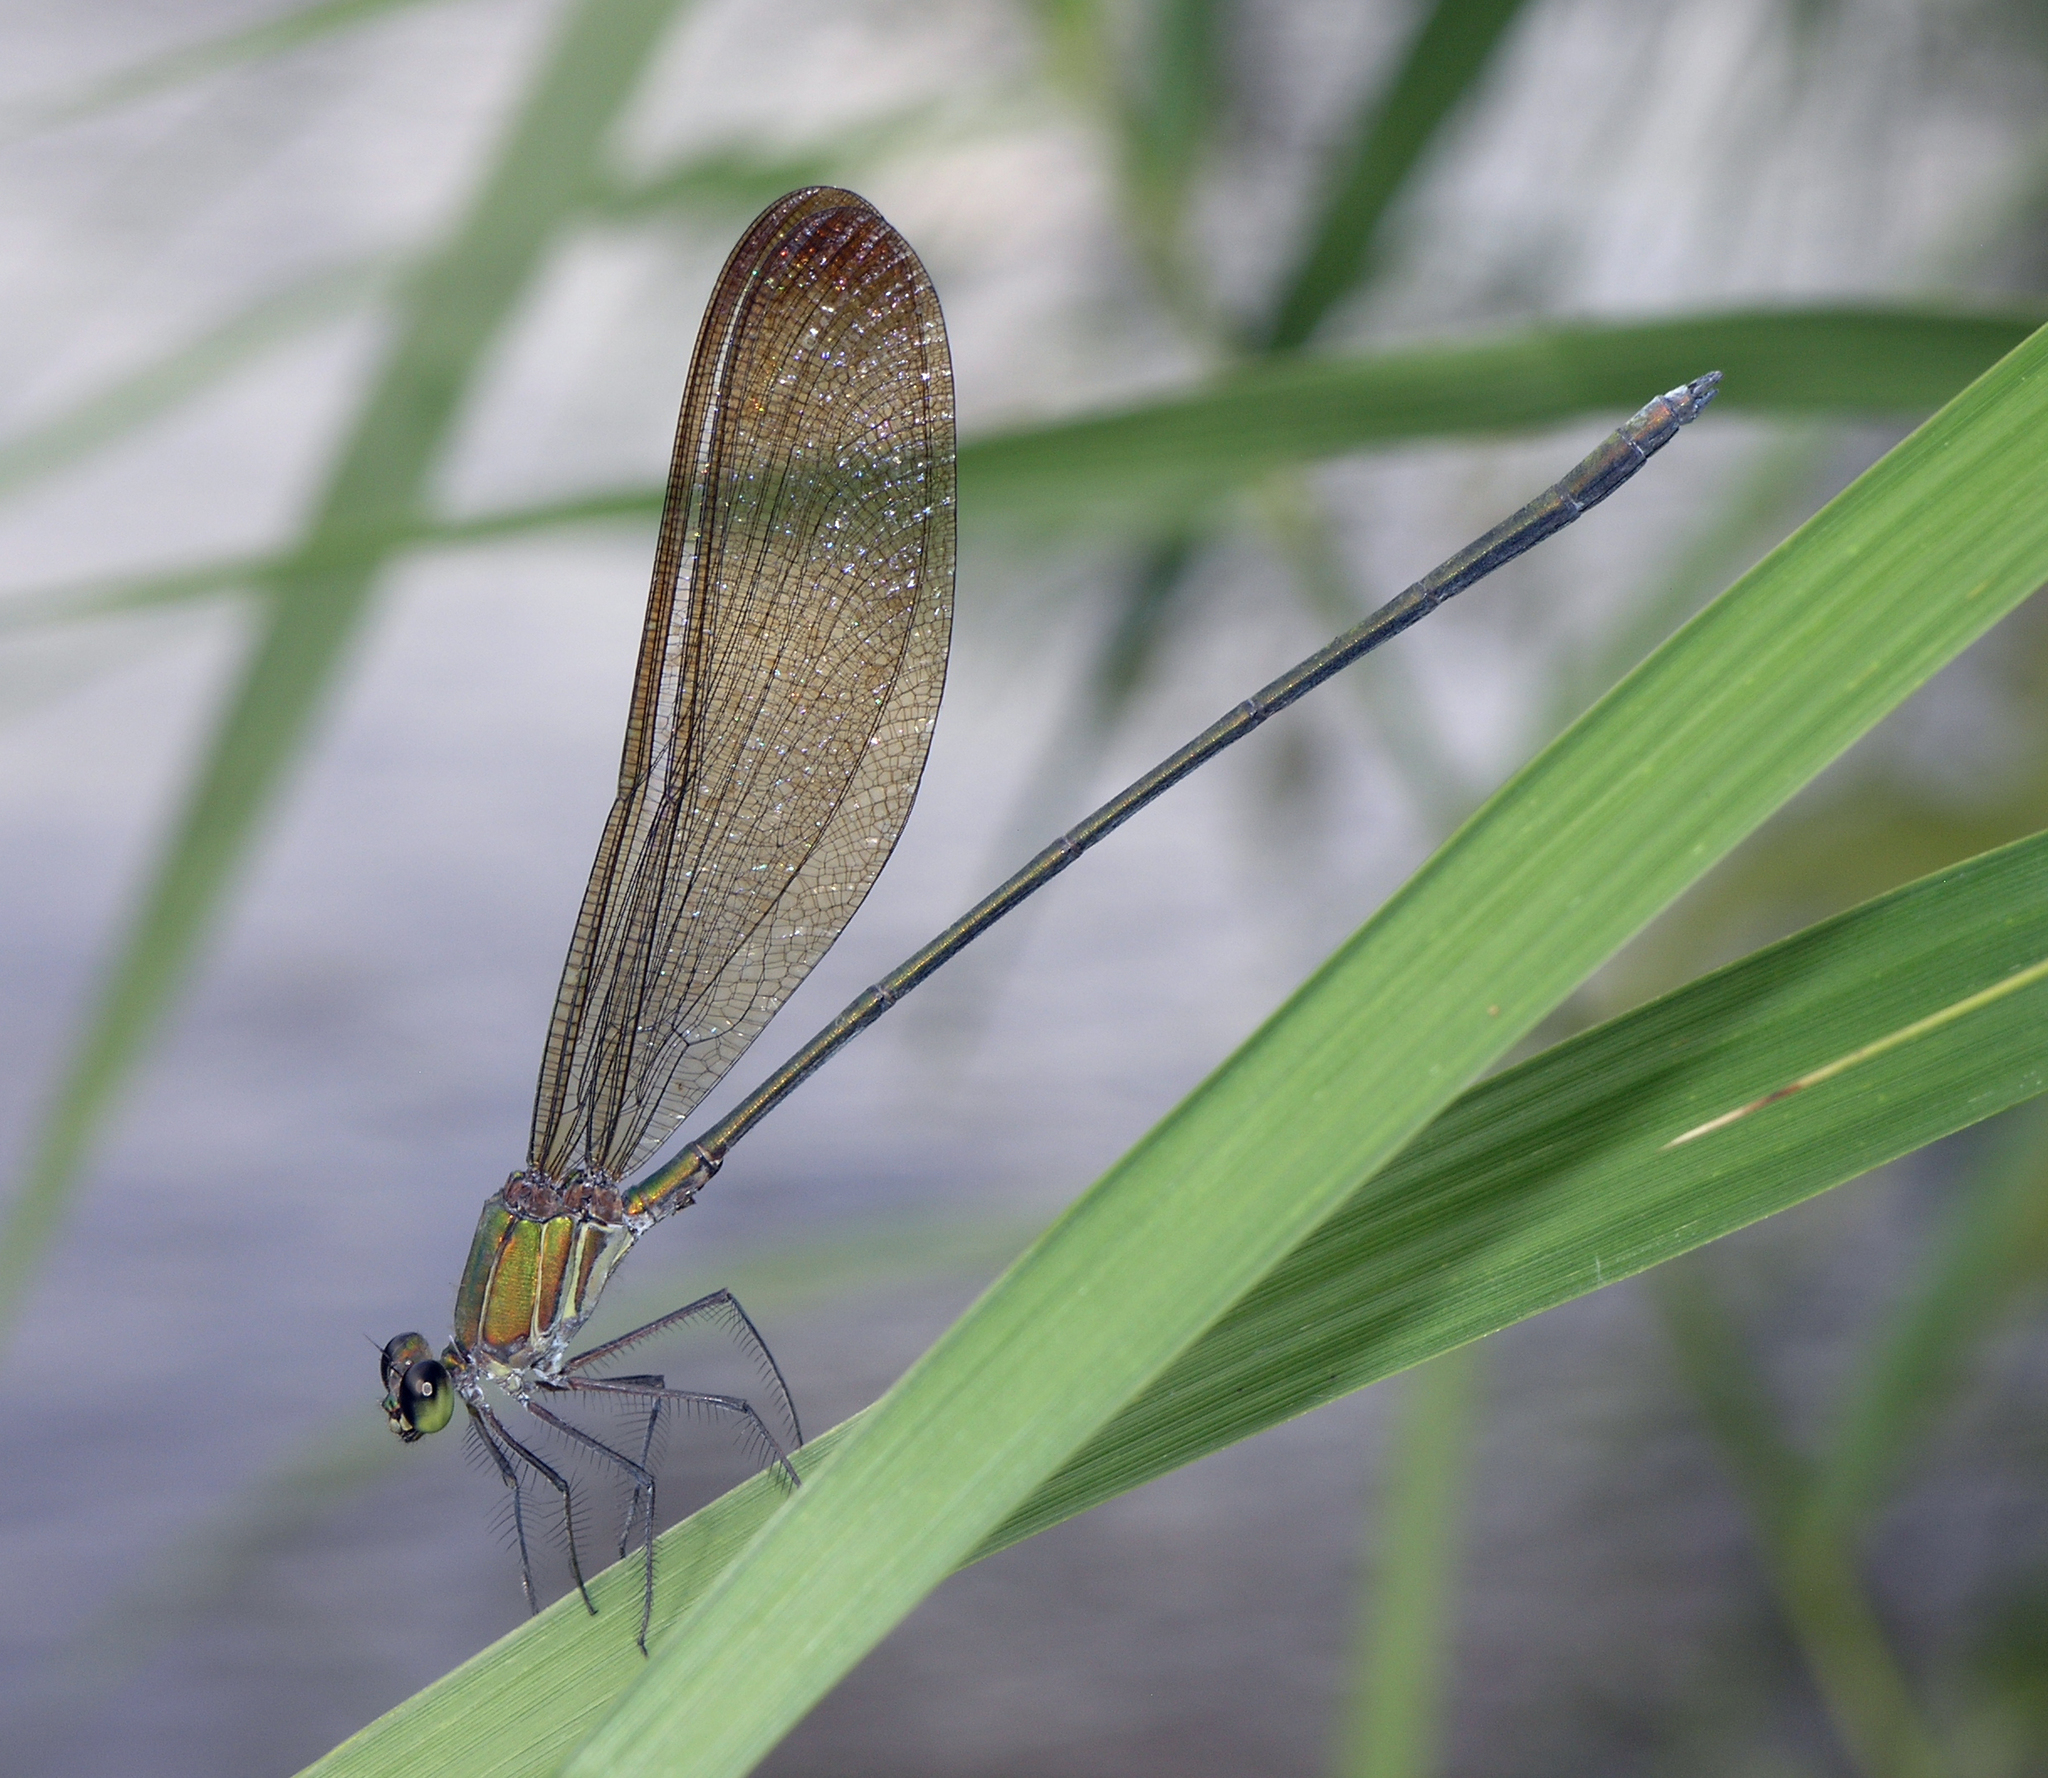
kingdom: Animalia
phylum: Arthropoda
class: Insecta
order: Odonata
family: Calopterygidae
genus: Vestalis
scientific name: Vestalis gracilis
